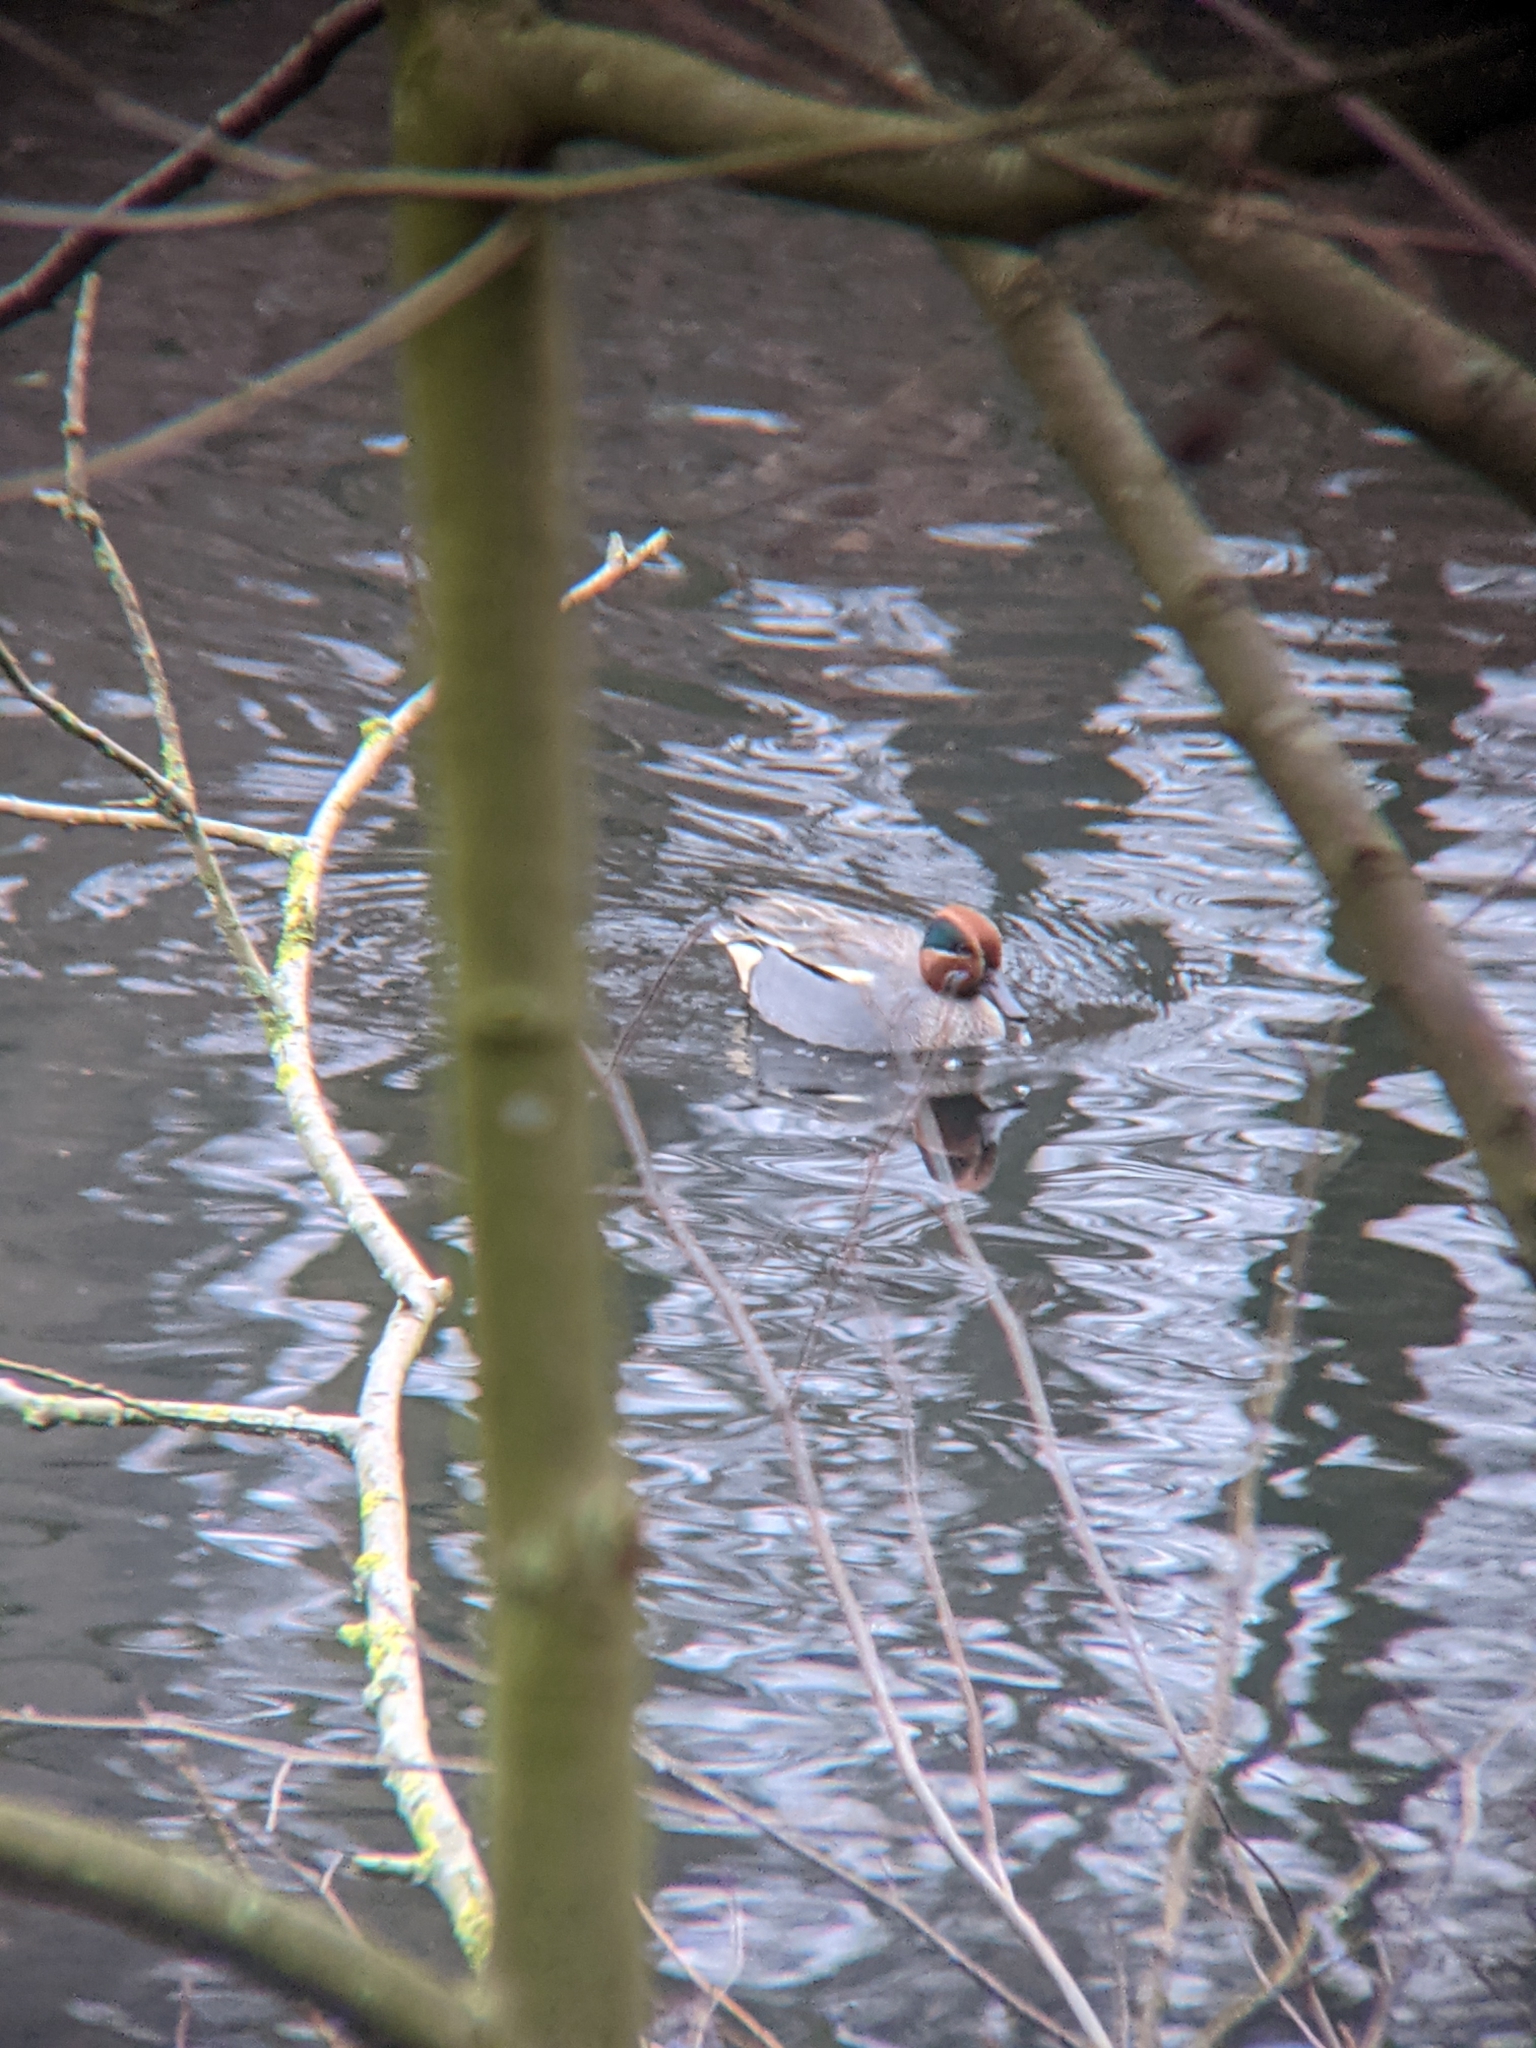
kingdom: Animalia
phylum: Chordata
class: Aves
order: Anseriformes
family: Anatidae
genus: Anas
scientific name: Anas crecca
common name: Eurasian teal
